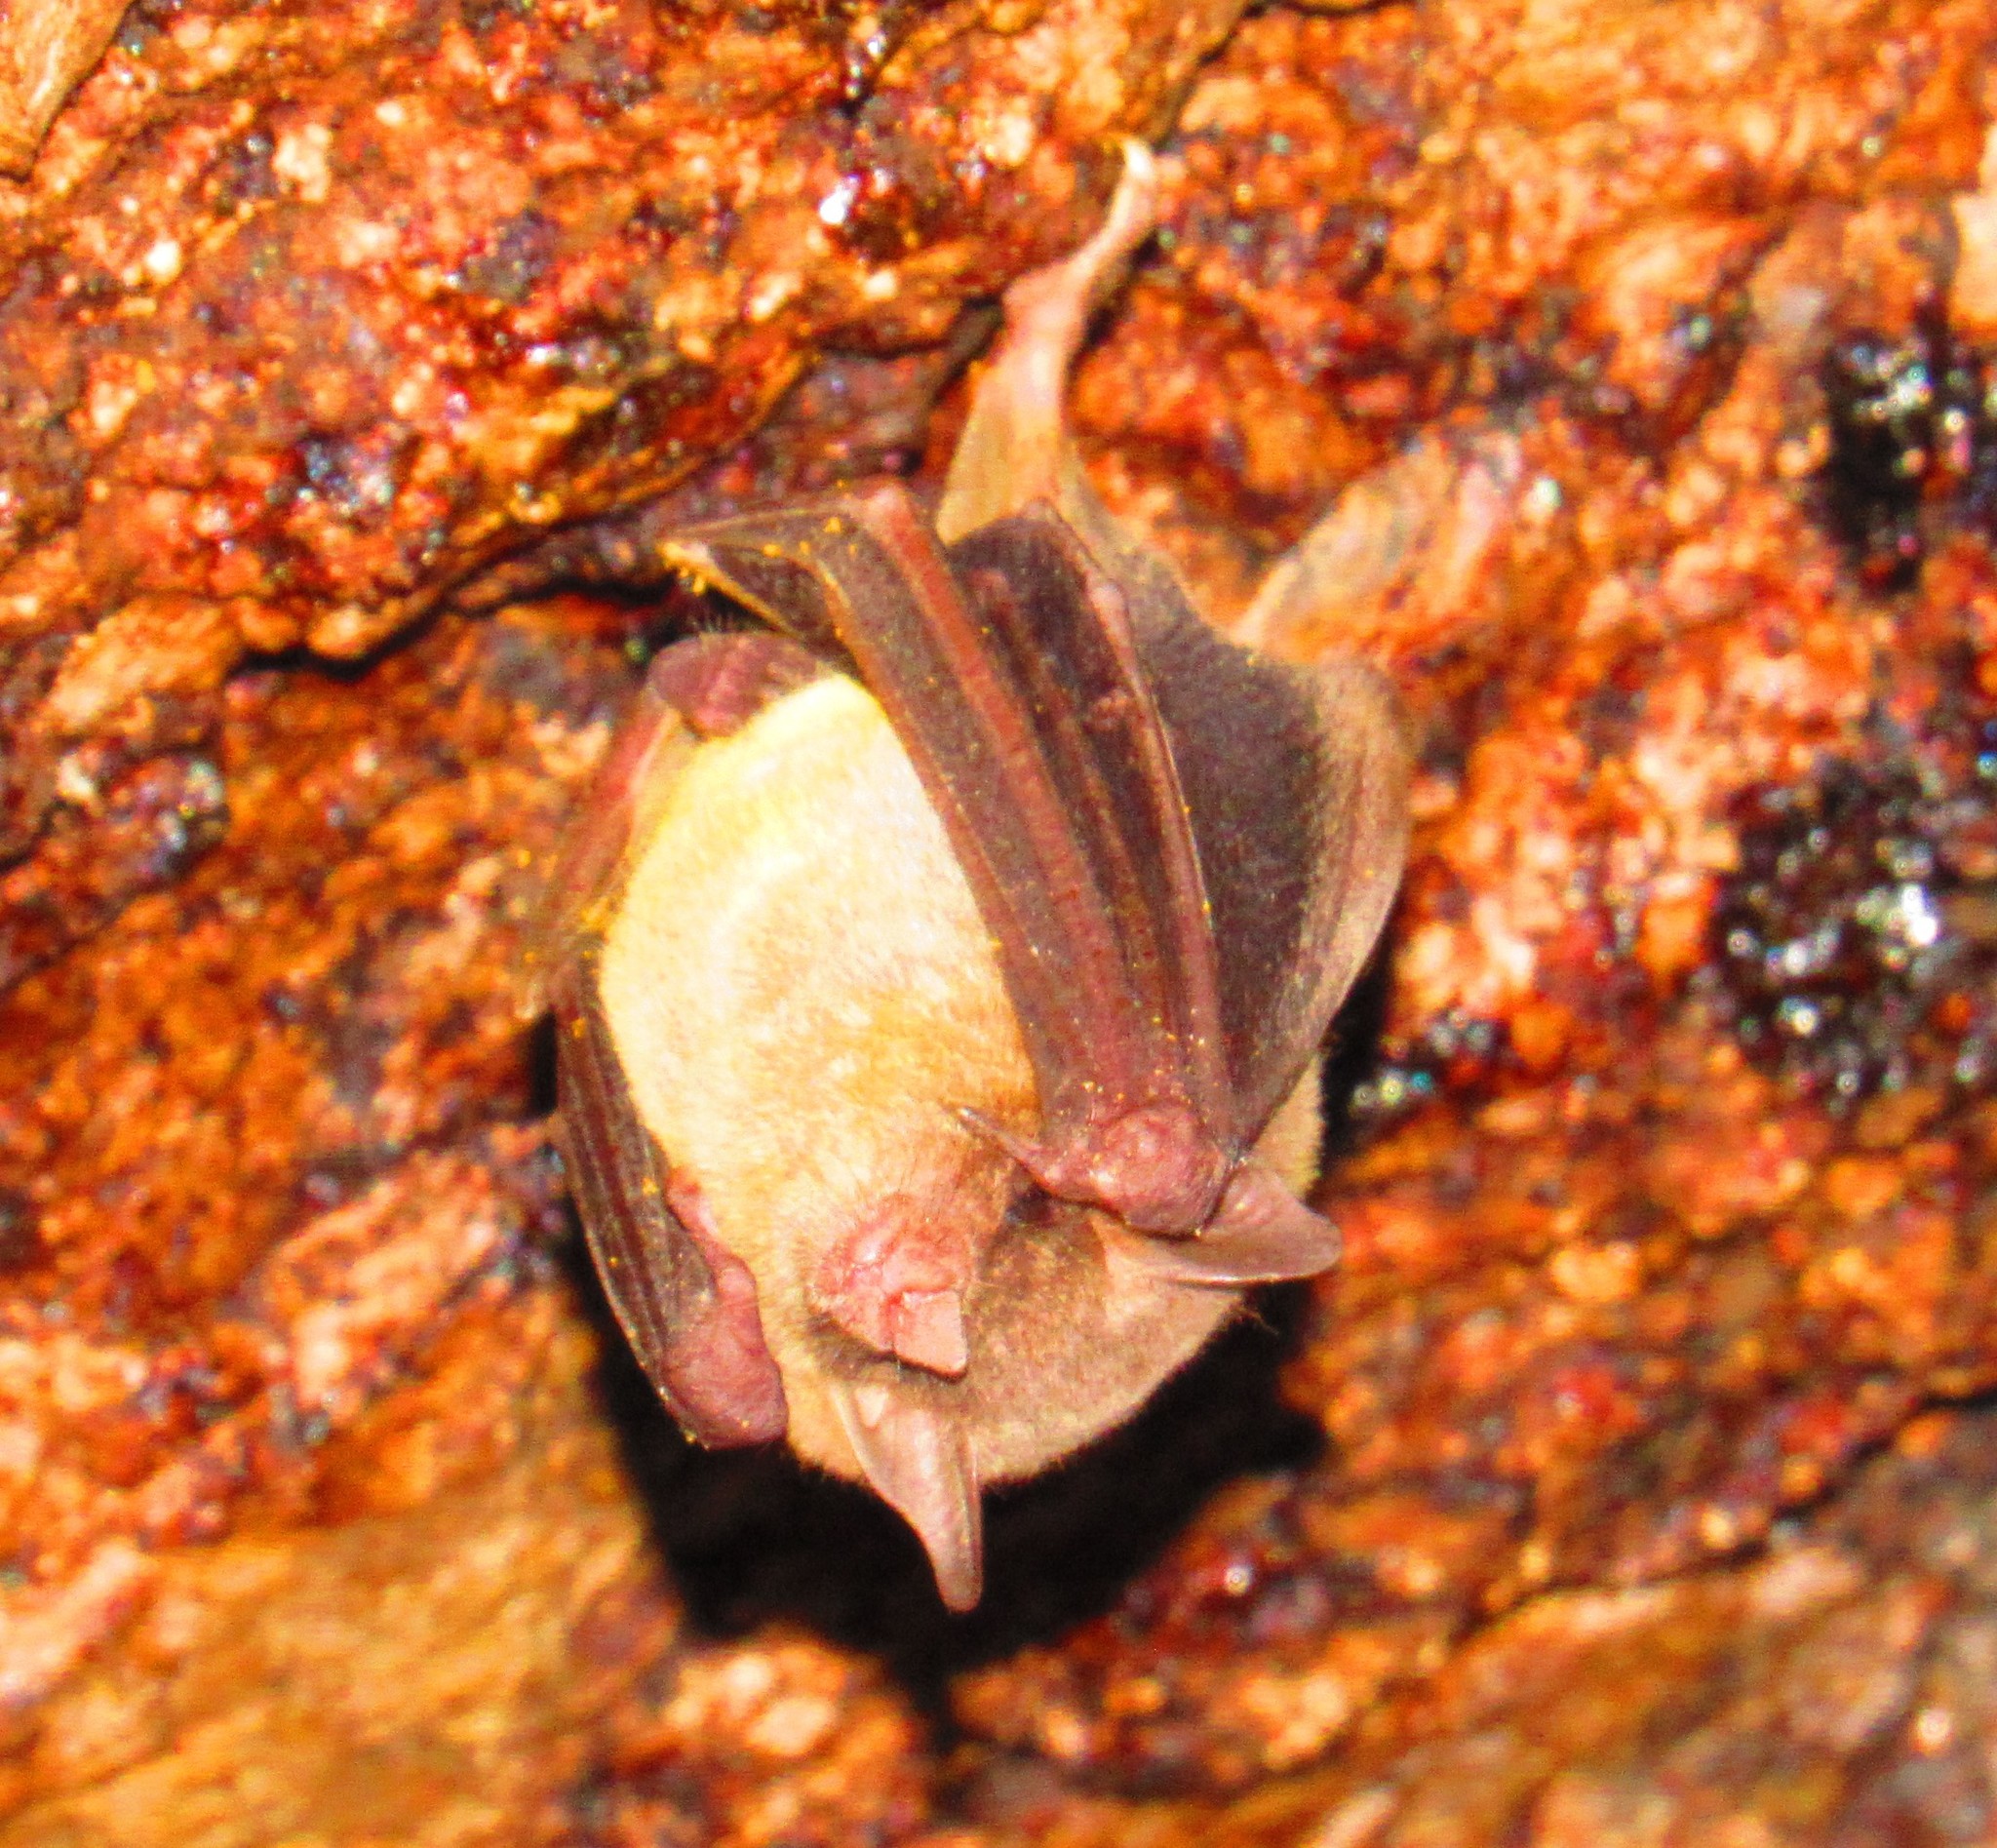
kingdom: Animalia
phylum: Chordata
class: Mammalia
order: Chiroptera
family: Phyllostomidae
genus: Leptonycteris
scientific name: Leptonycteris
